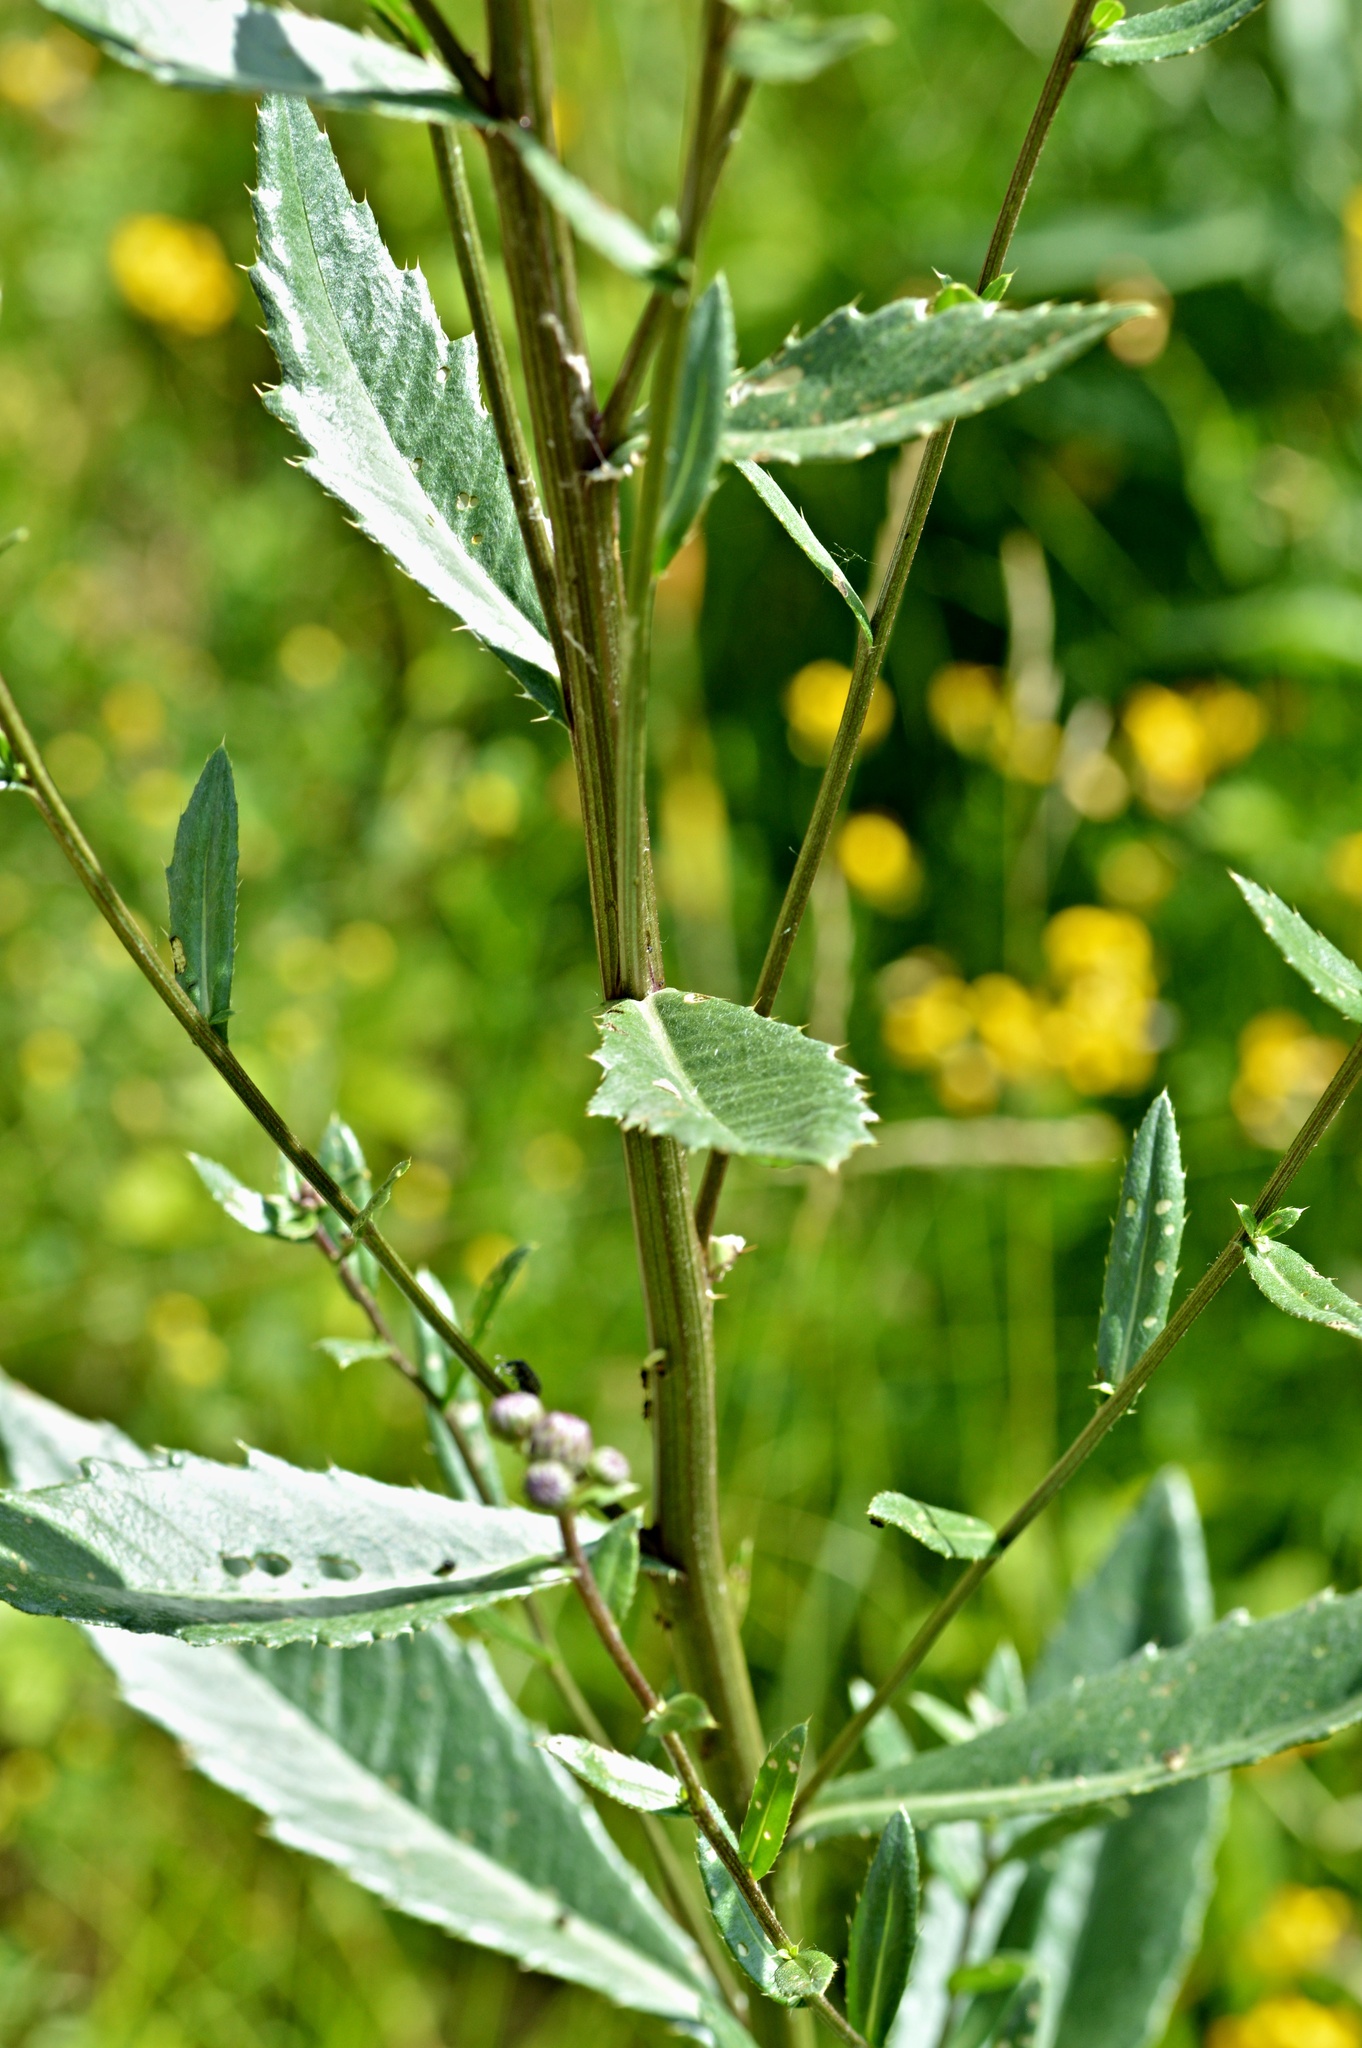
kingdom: Plantae
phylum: Tracheophyta
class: Magnoliopsida
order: Asterales
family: Asteraceae
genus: Cirsium
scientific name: Cirsium arvense
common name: Creeping thistle
